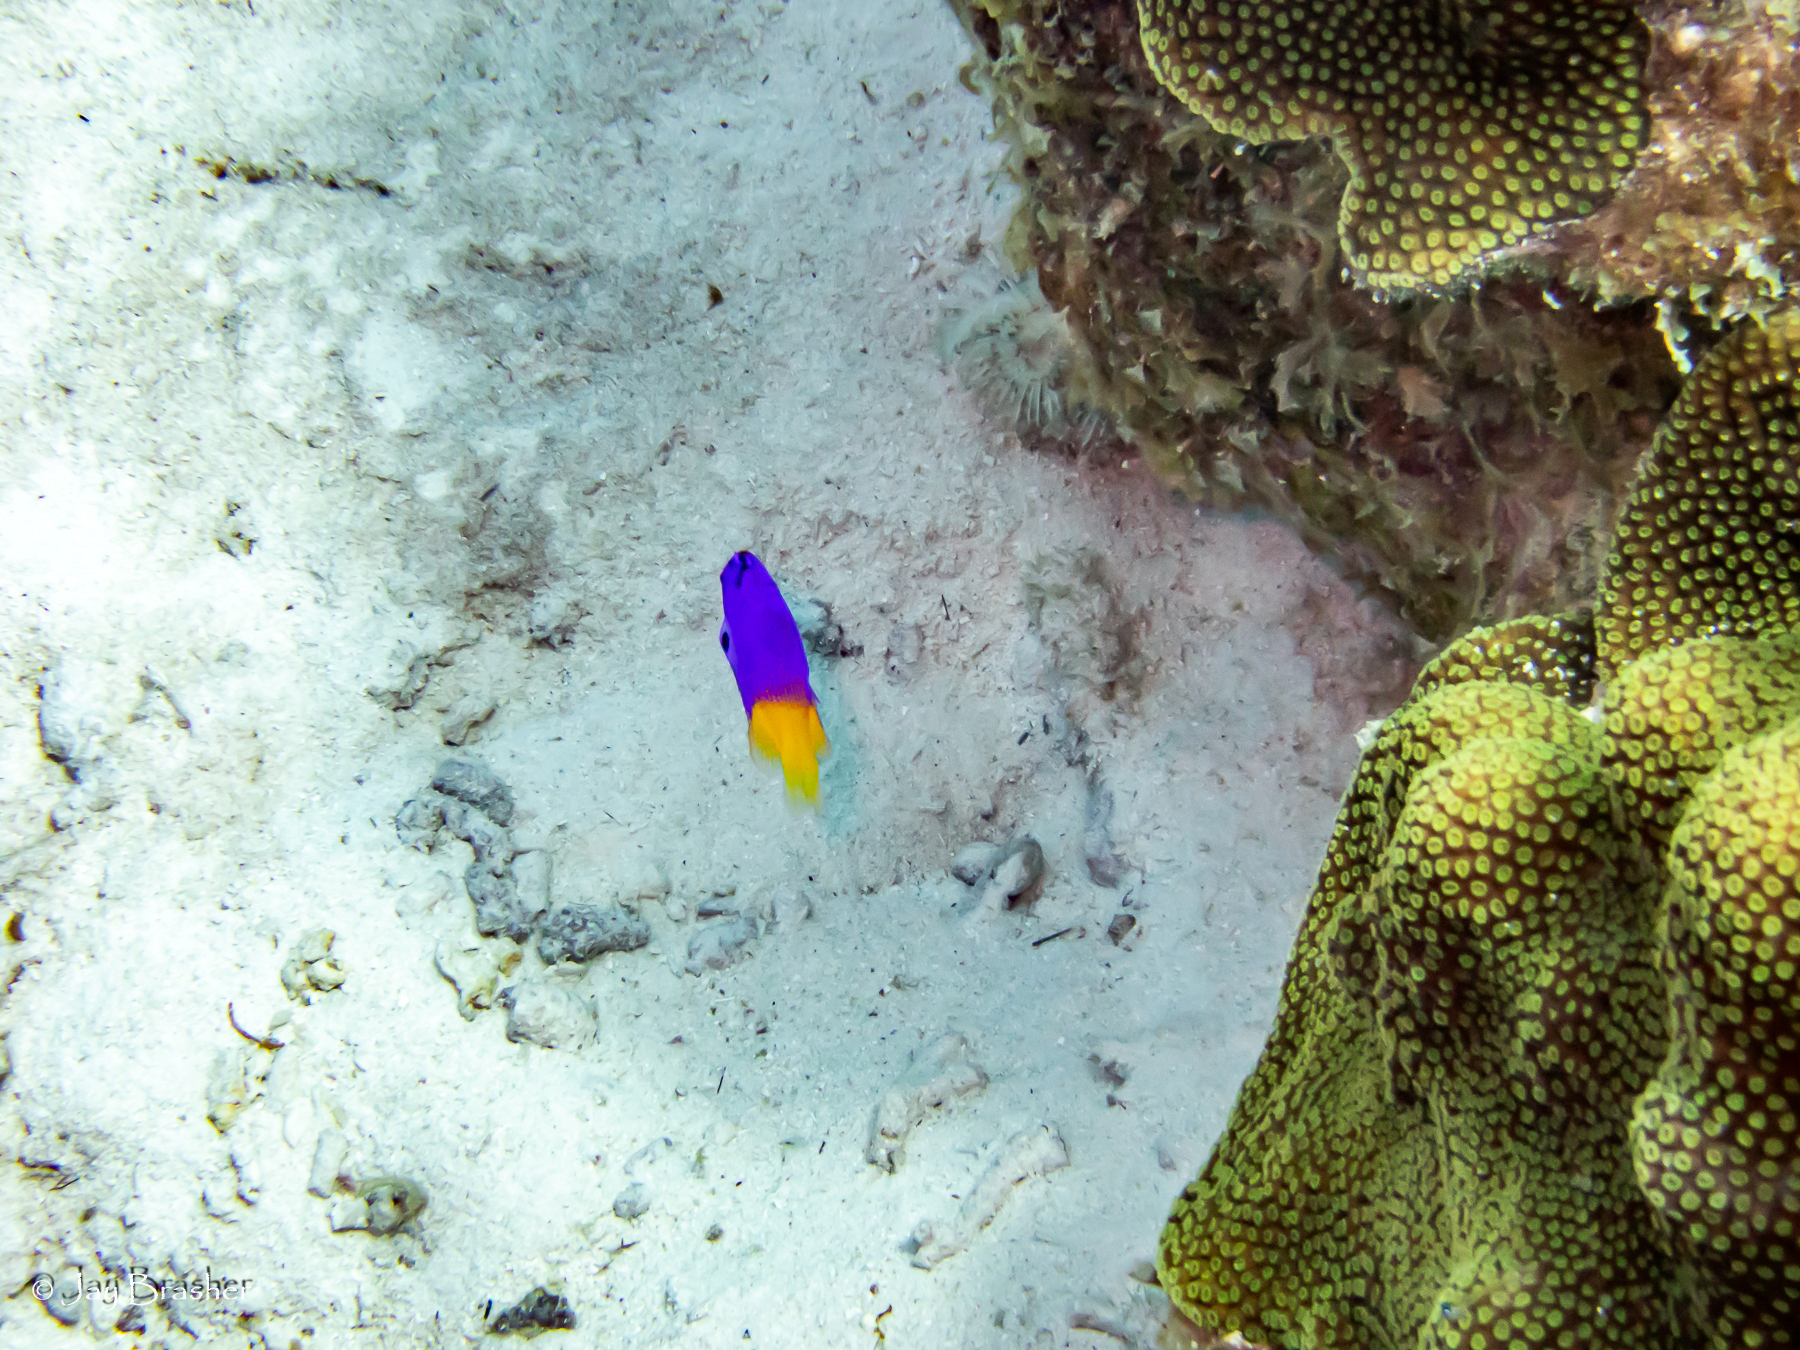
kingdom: Animalia
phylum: Chordata
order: Perciformes
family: Grammatidae
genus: Gramma
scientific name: Gramma loreto
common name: Fairy basslet
